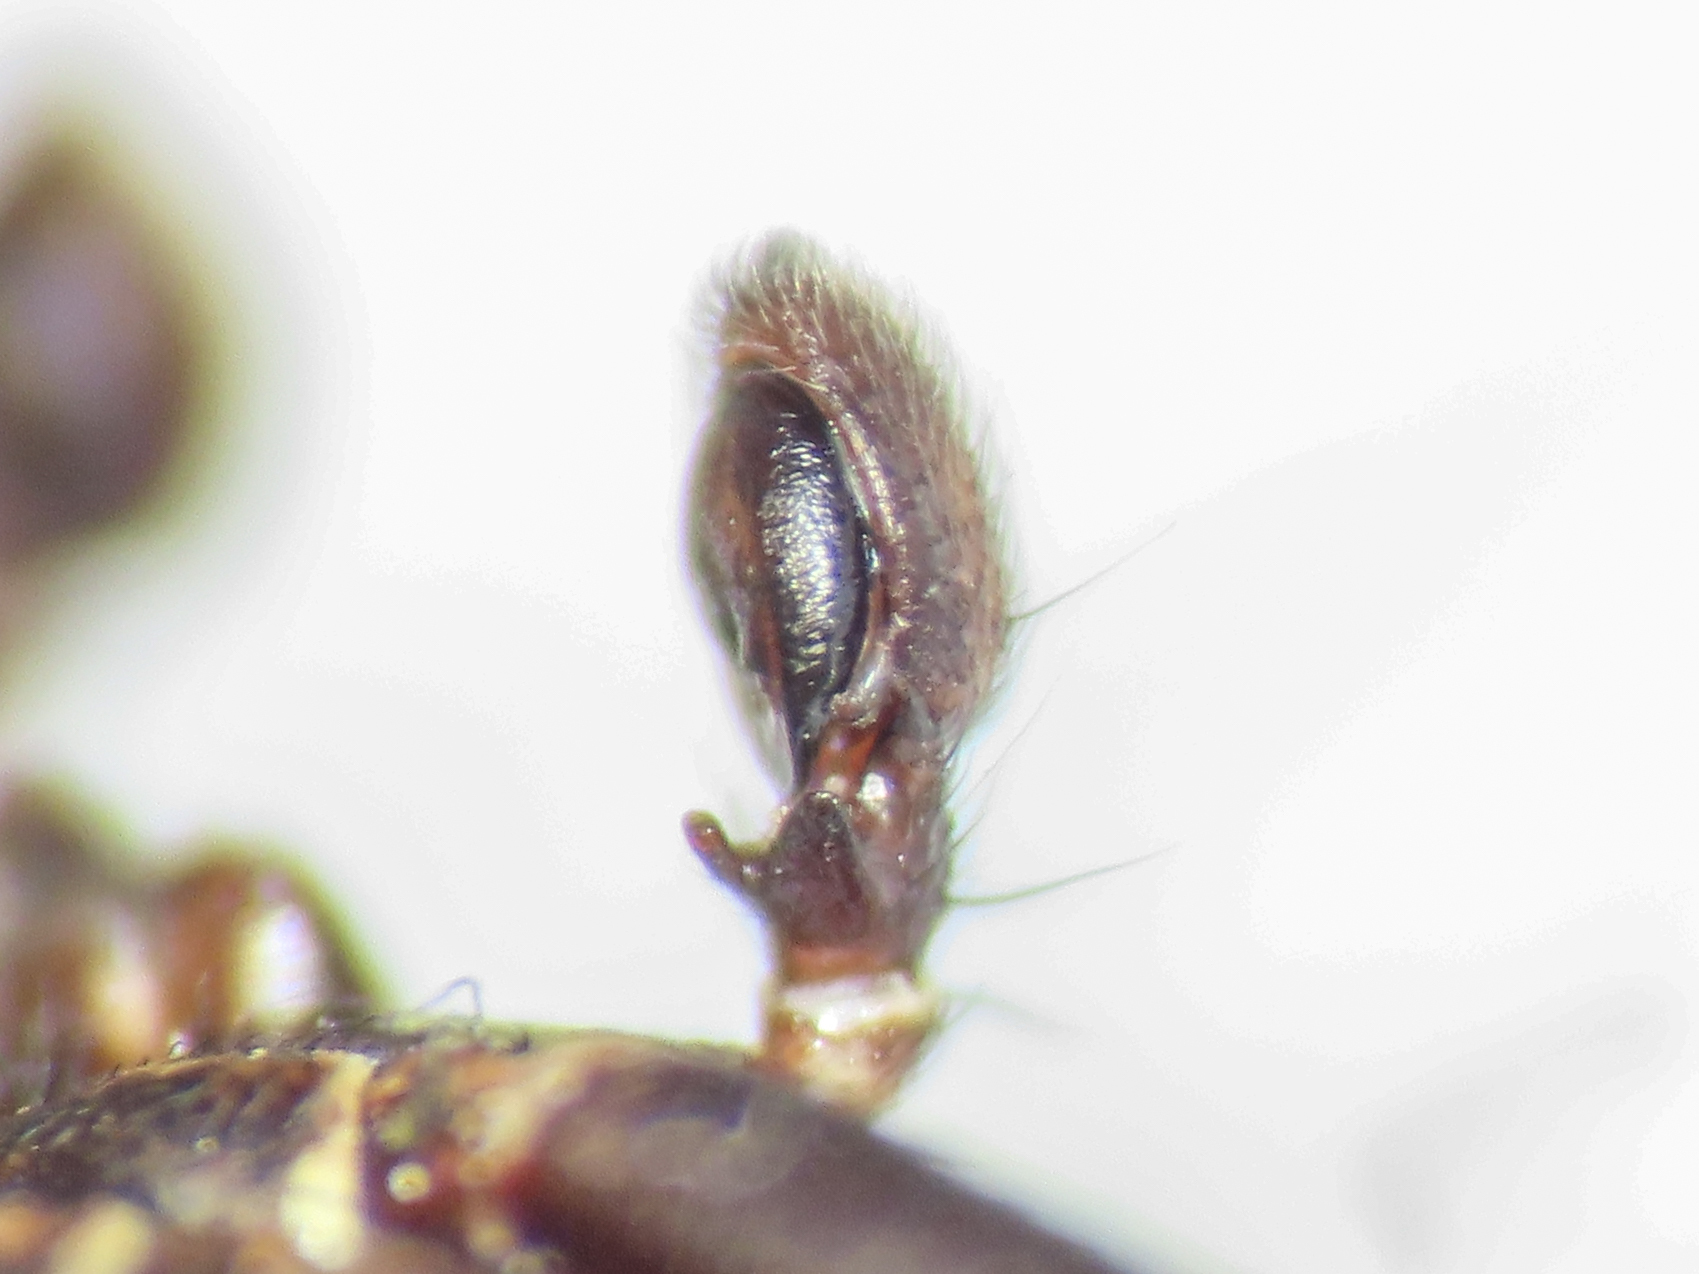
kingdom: Animalia
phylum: Arthropoda
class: Arachnida
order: Araneae
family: Thomisidae
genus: Xysticus
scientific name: Xysticus kempeleni
